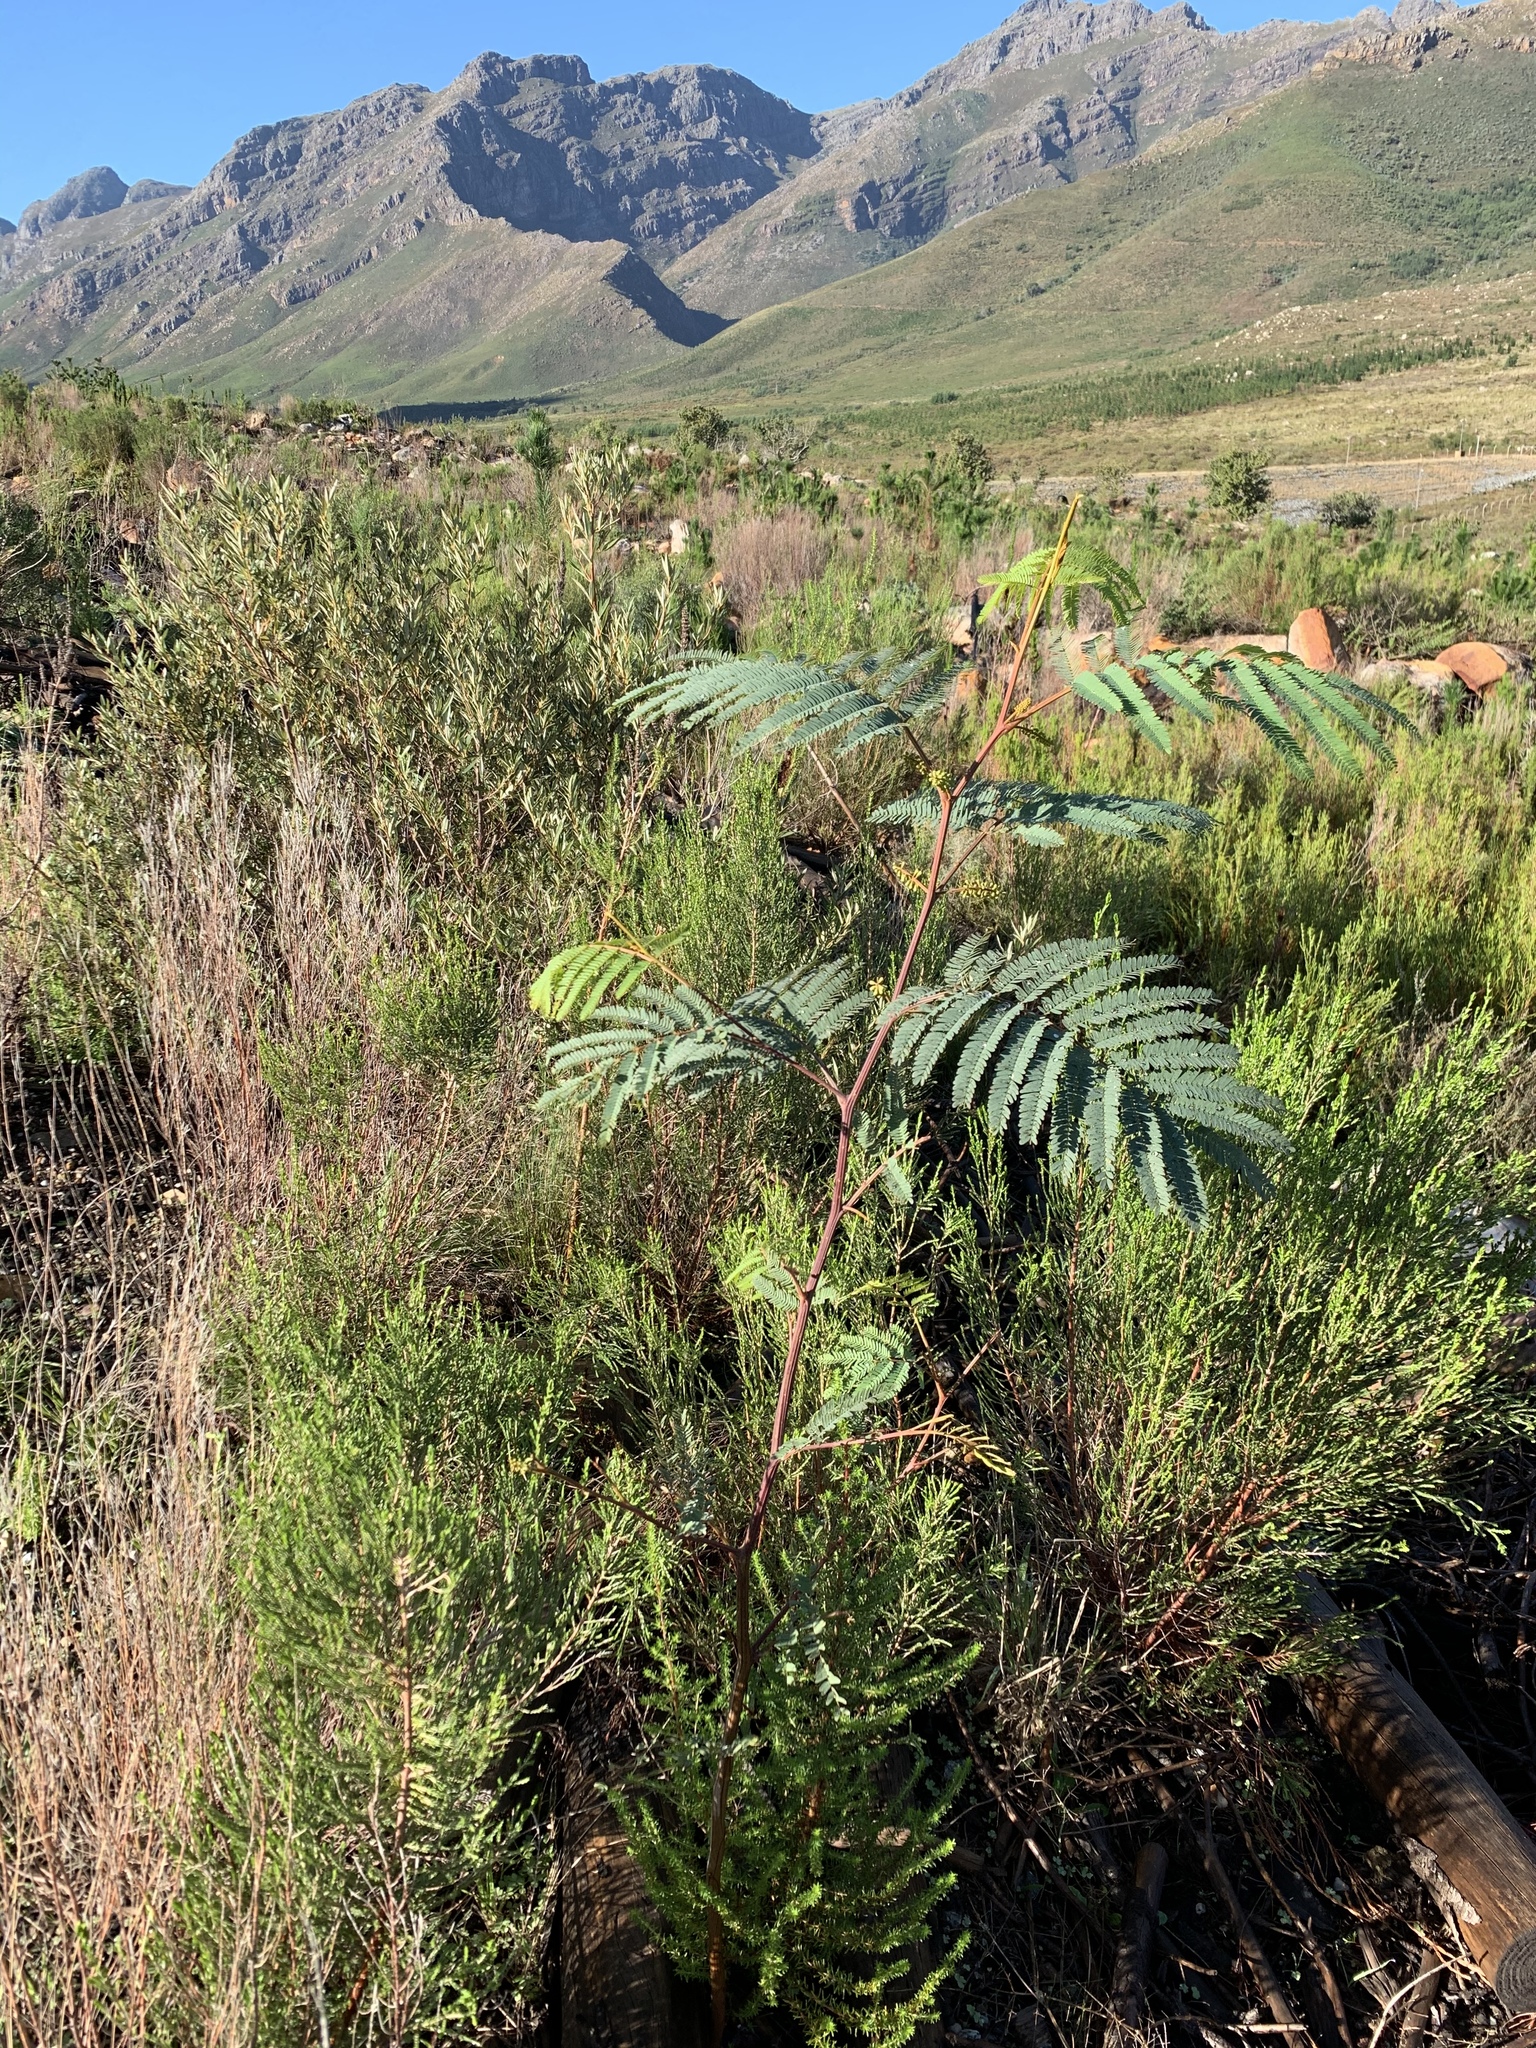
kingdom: Plantae
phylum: Tracheophyta
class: Magnoliopsida
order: Fabales
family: Fabaceae
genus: Paraserianthes
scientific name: Paraserianthes lophantha
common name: Plume albizia
